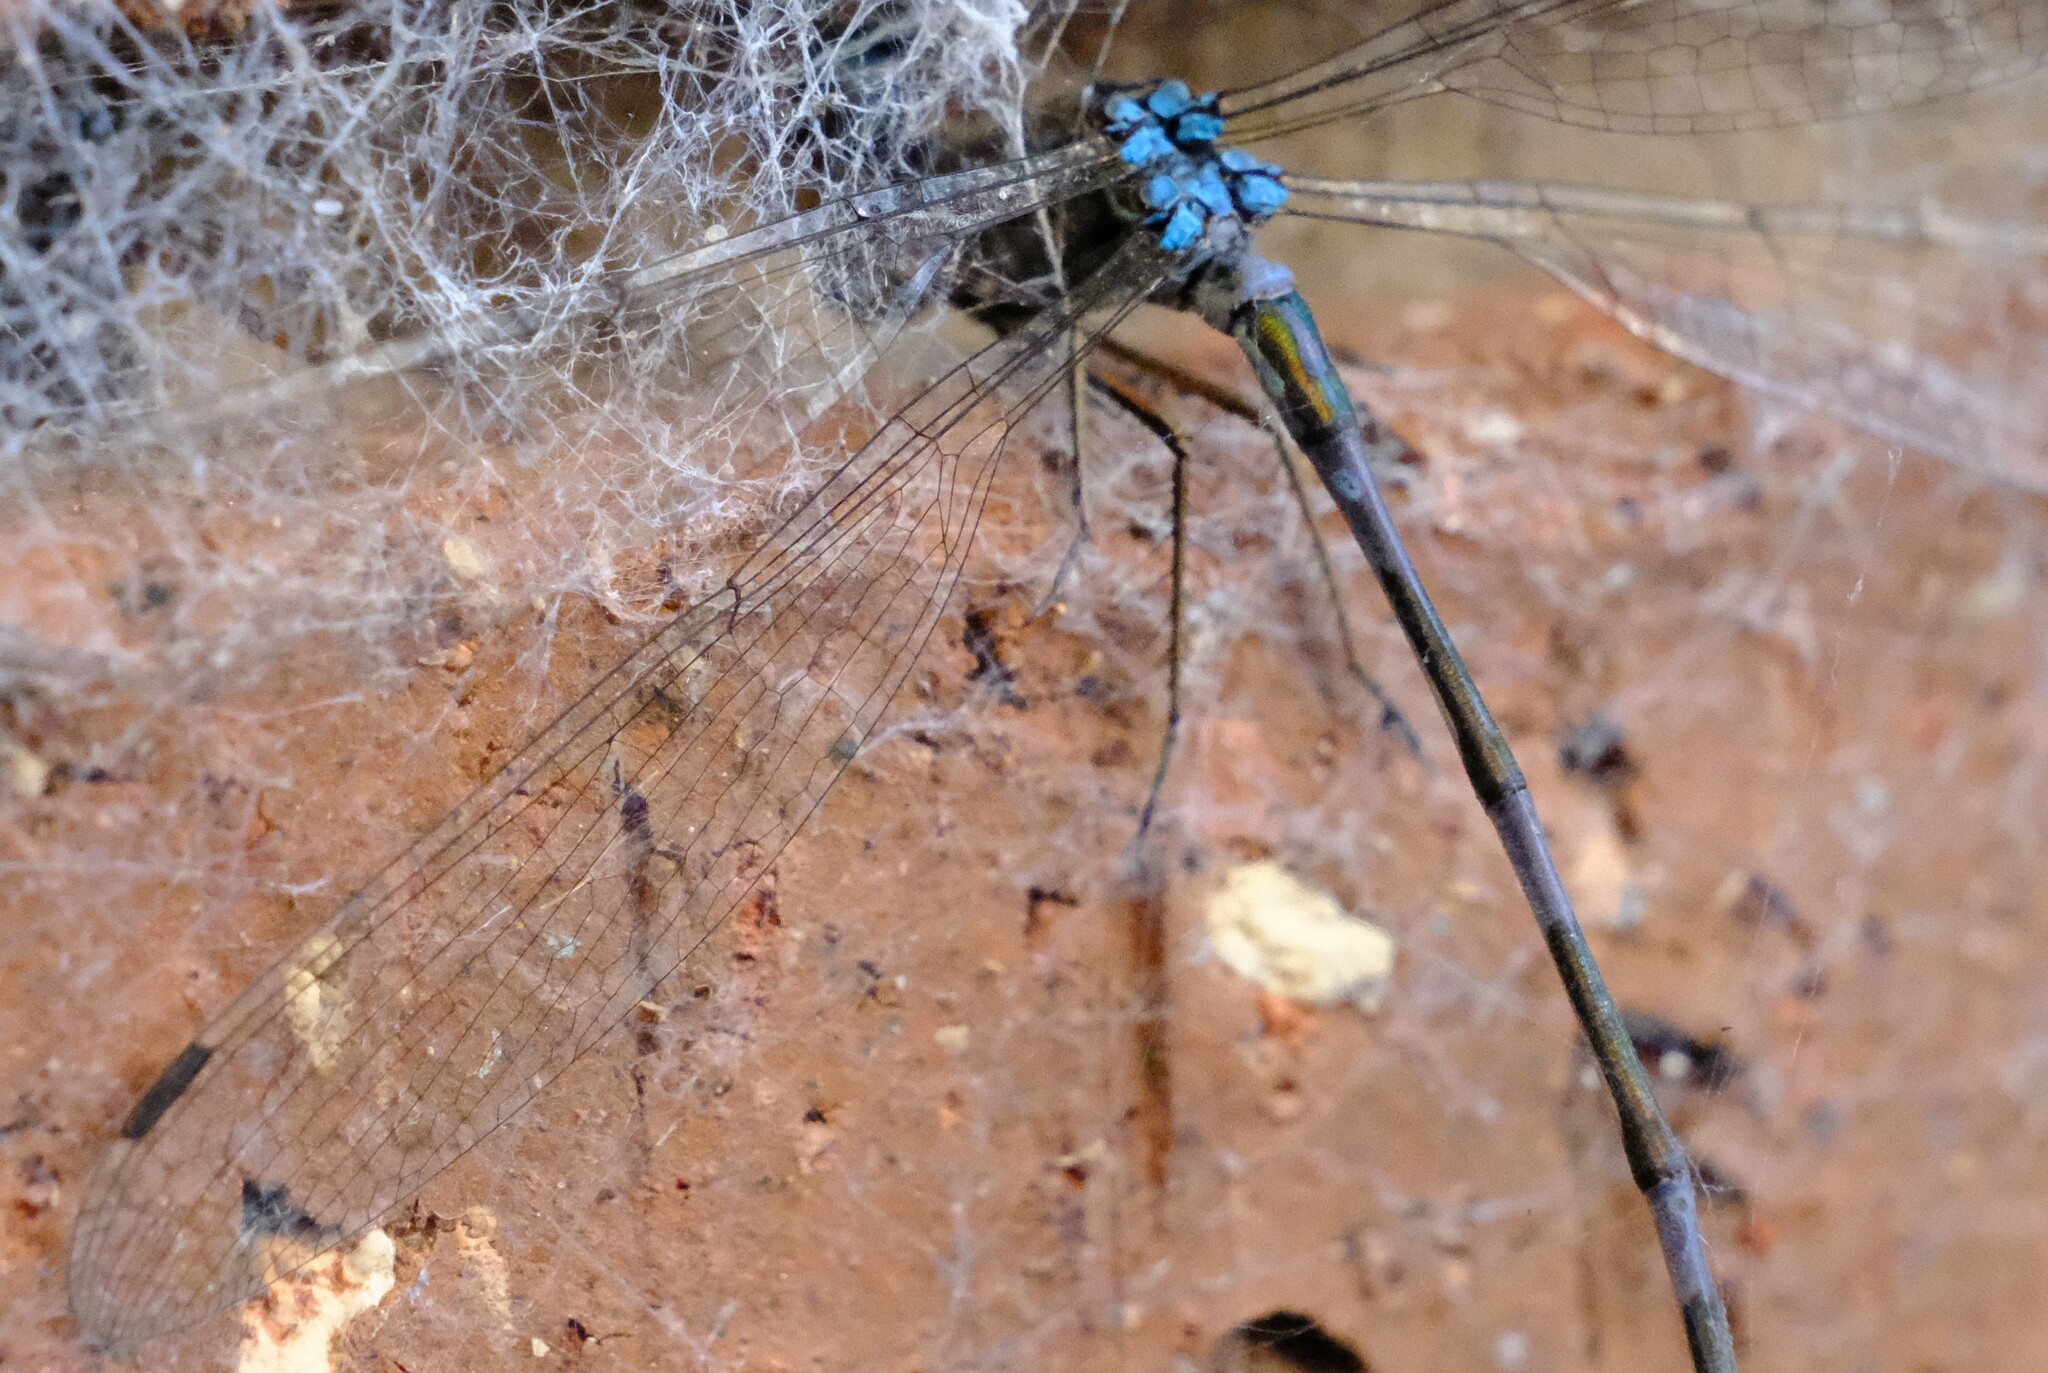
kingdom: Animalia
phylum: Arthropoda
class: Insecta
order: Odonata
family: Lestidae
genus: Austrolestes
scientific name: Austrolestes leda
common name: Wandering ringtail
